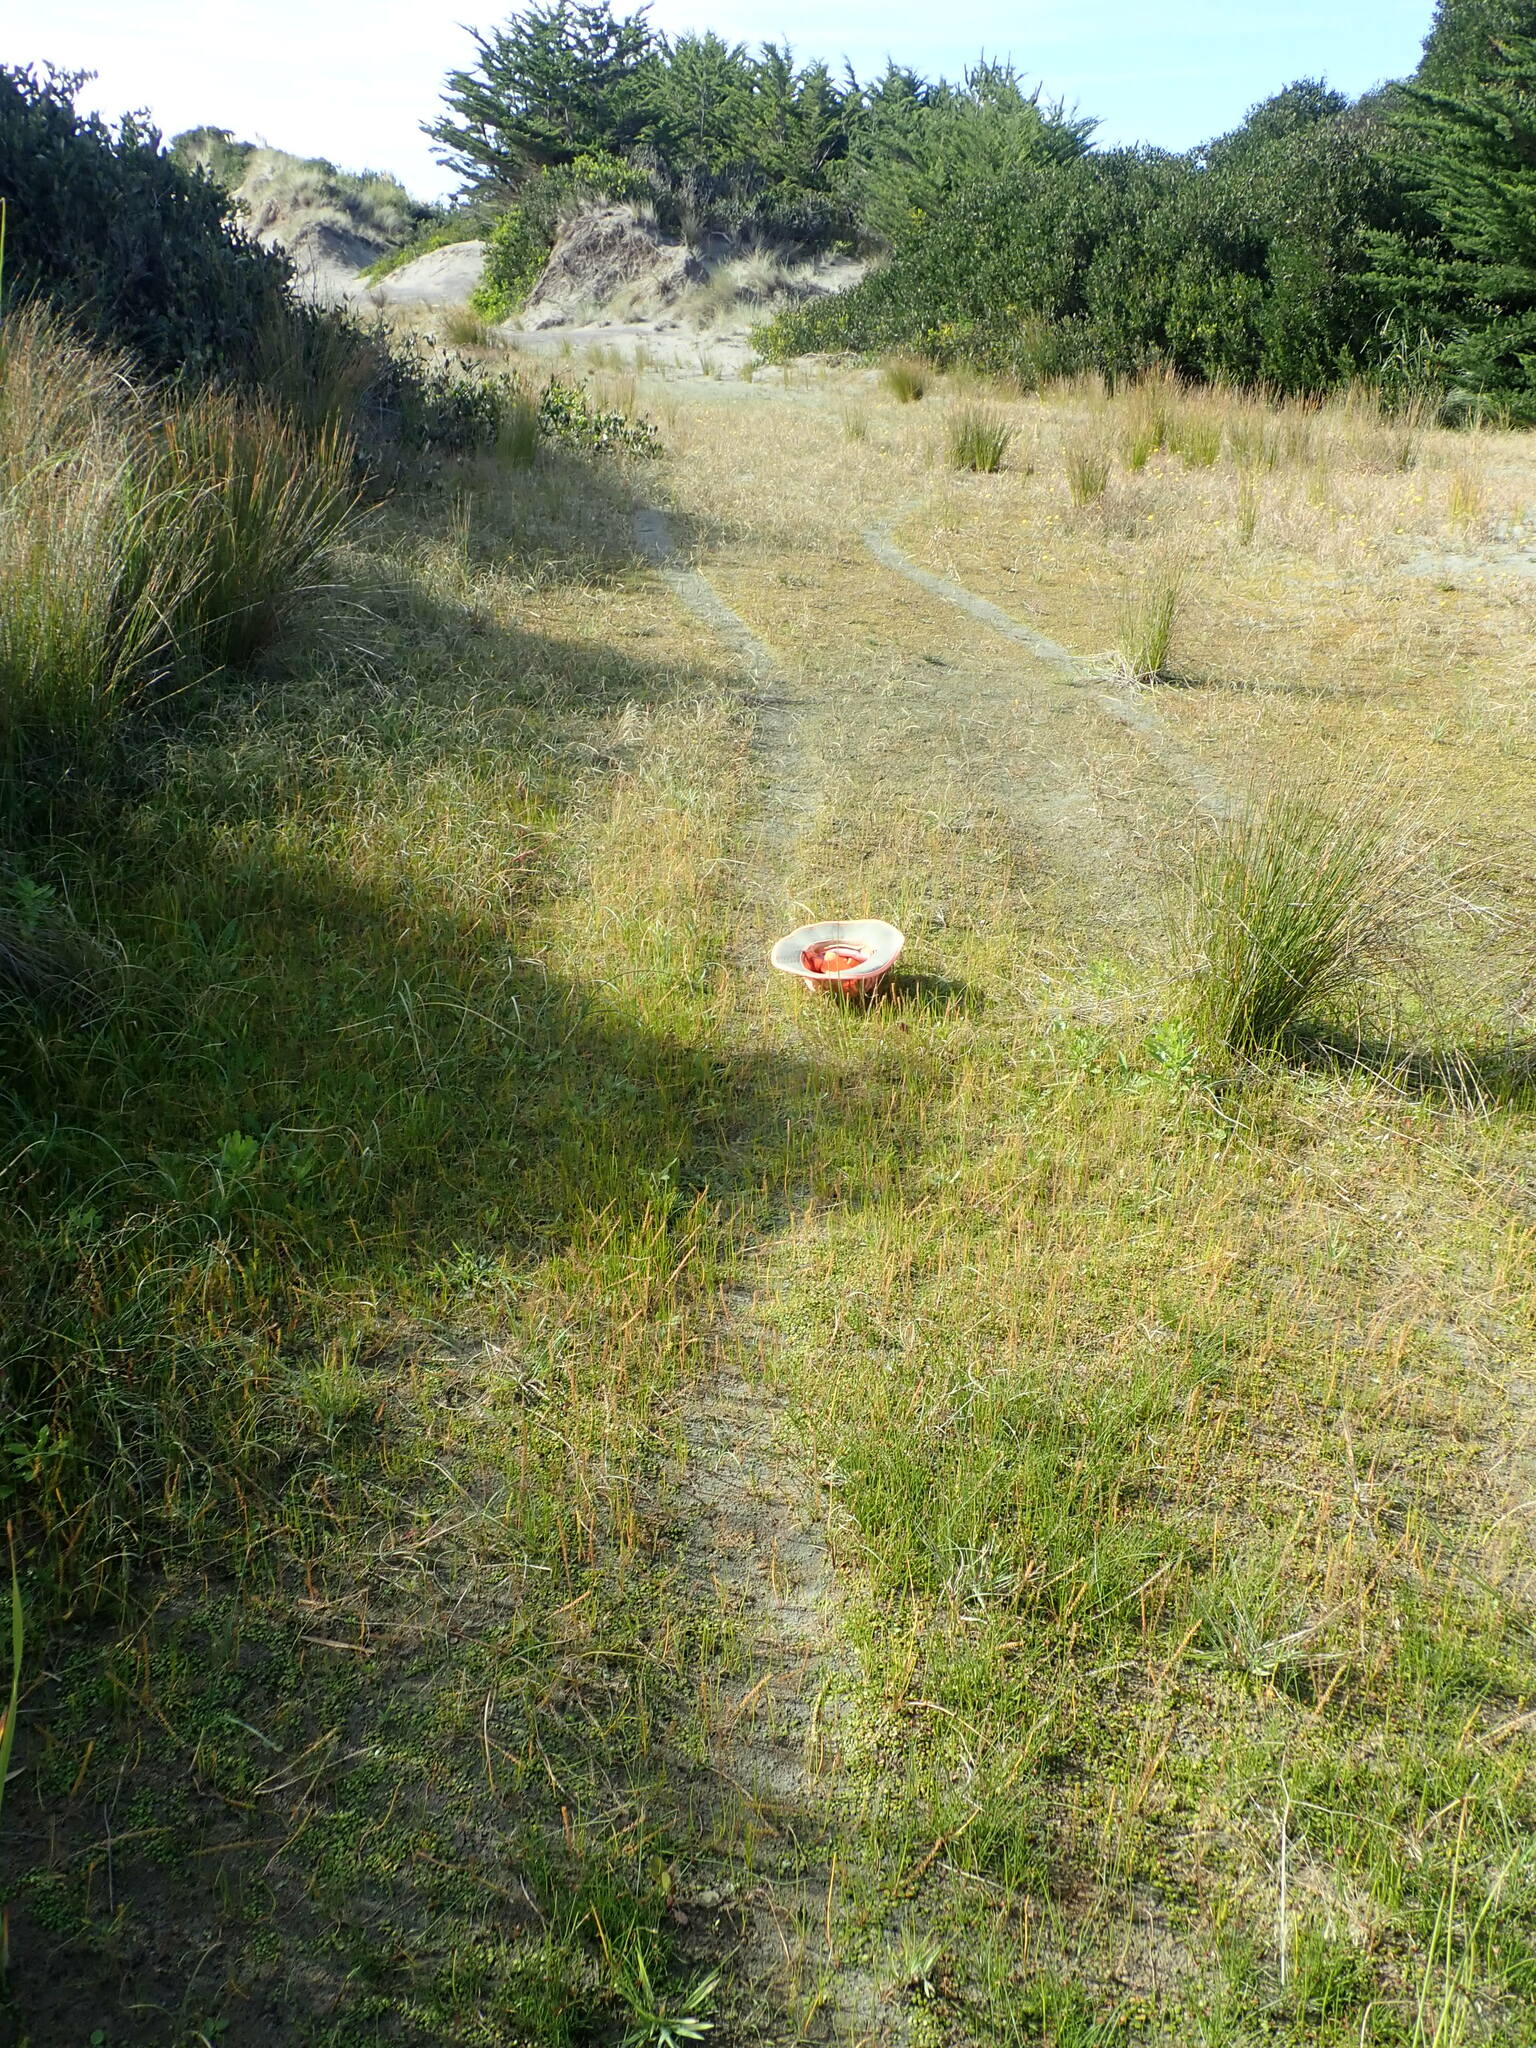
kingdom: Plantae
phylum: Tracheophyta
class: Liliopsida
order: Alismatales
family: Juncaginaceae
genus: Triglochin
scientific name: Triglochin striata
